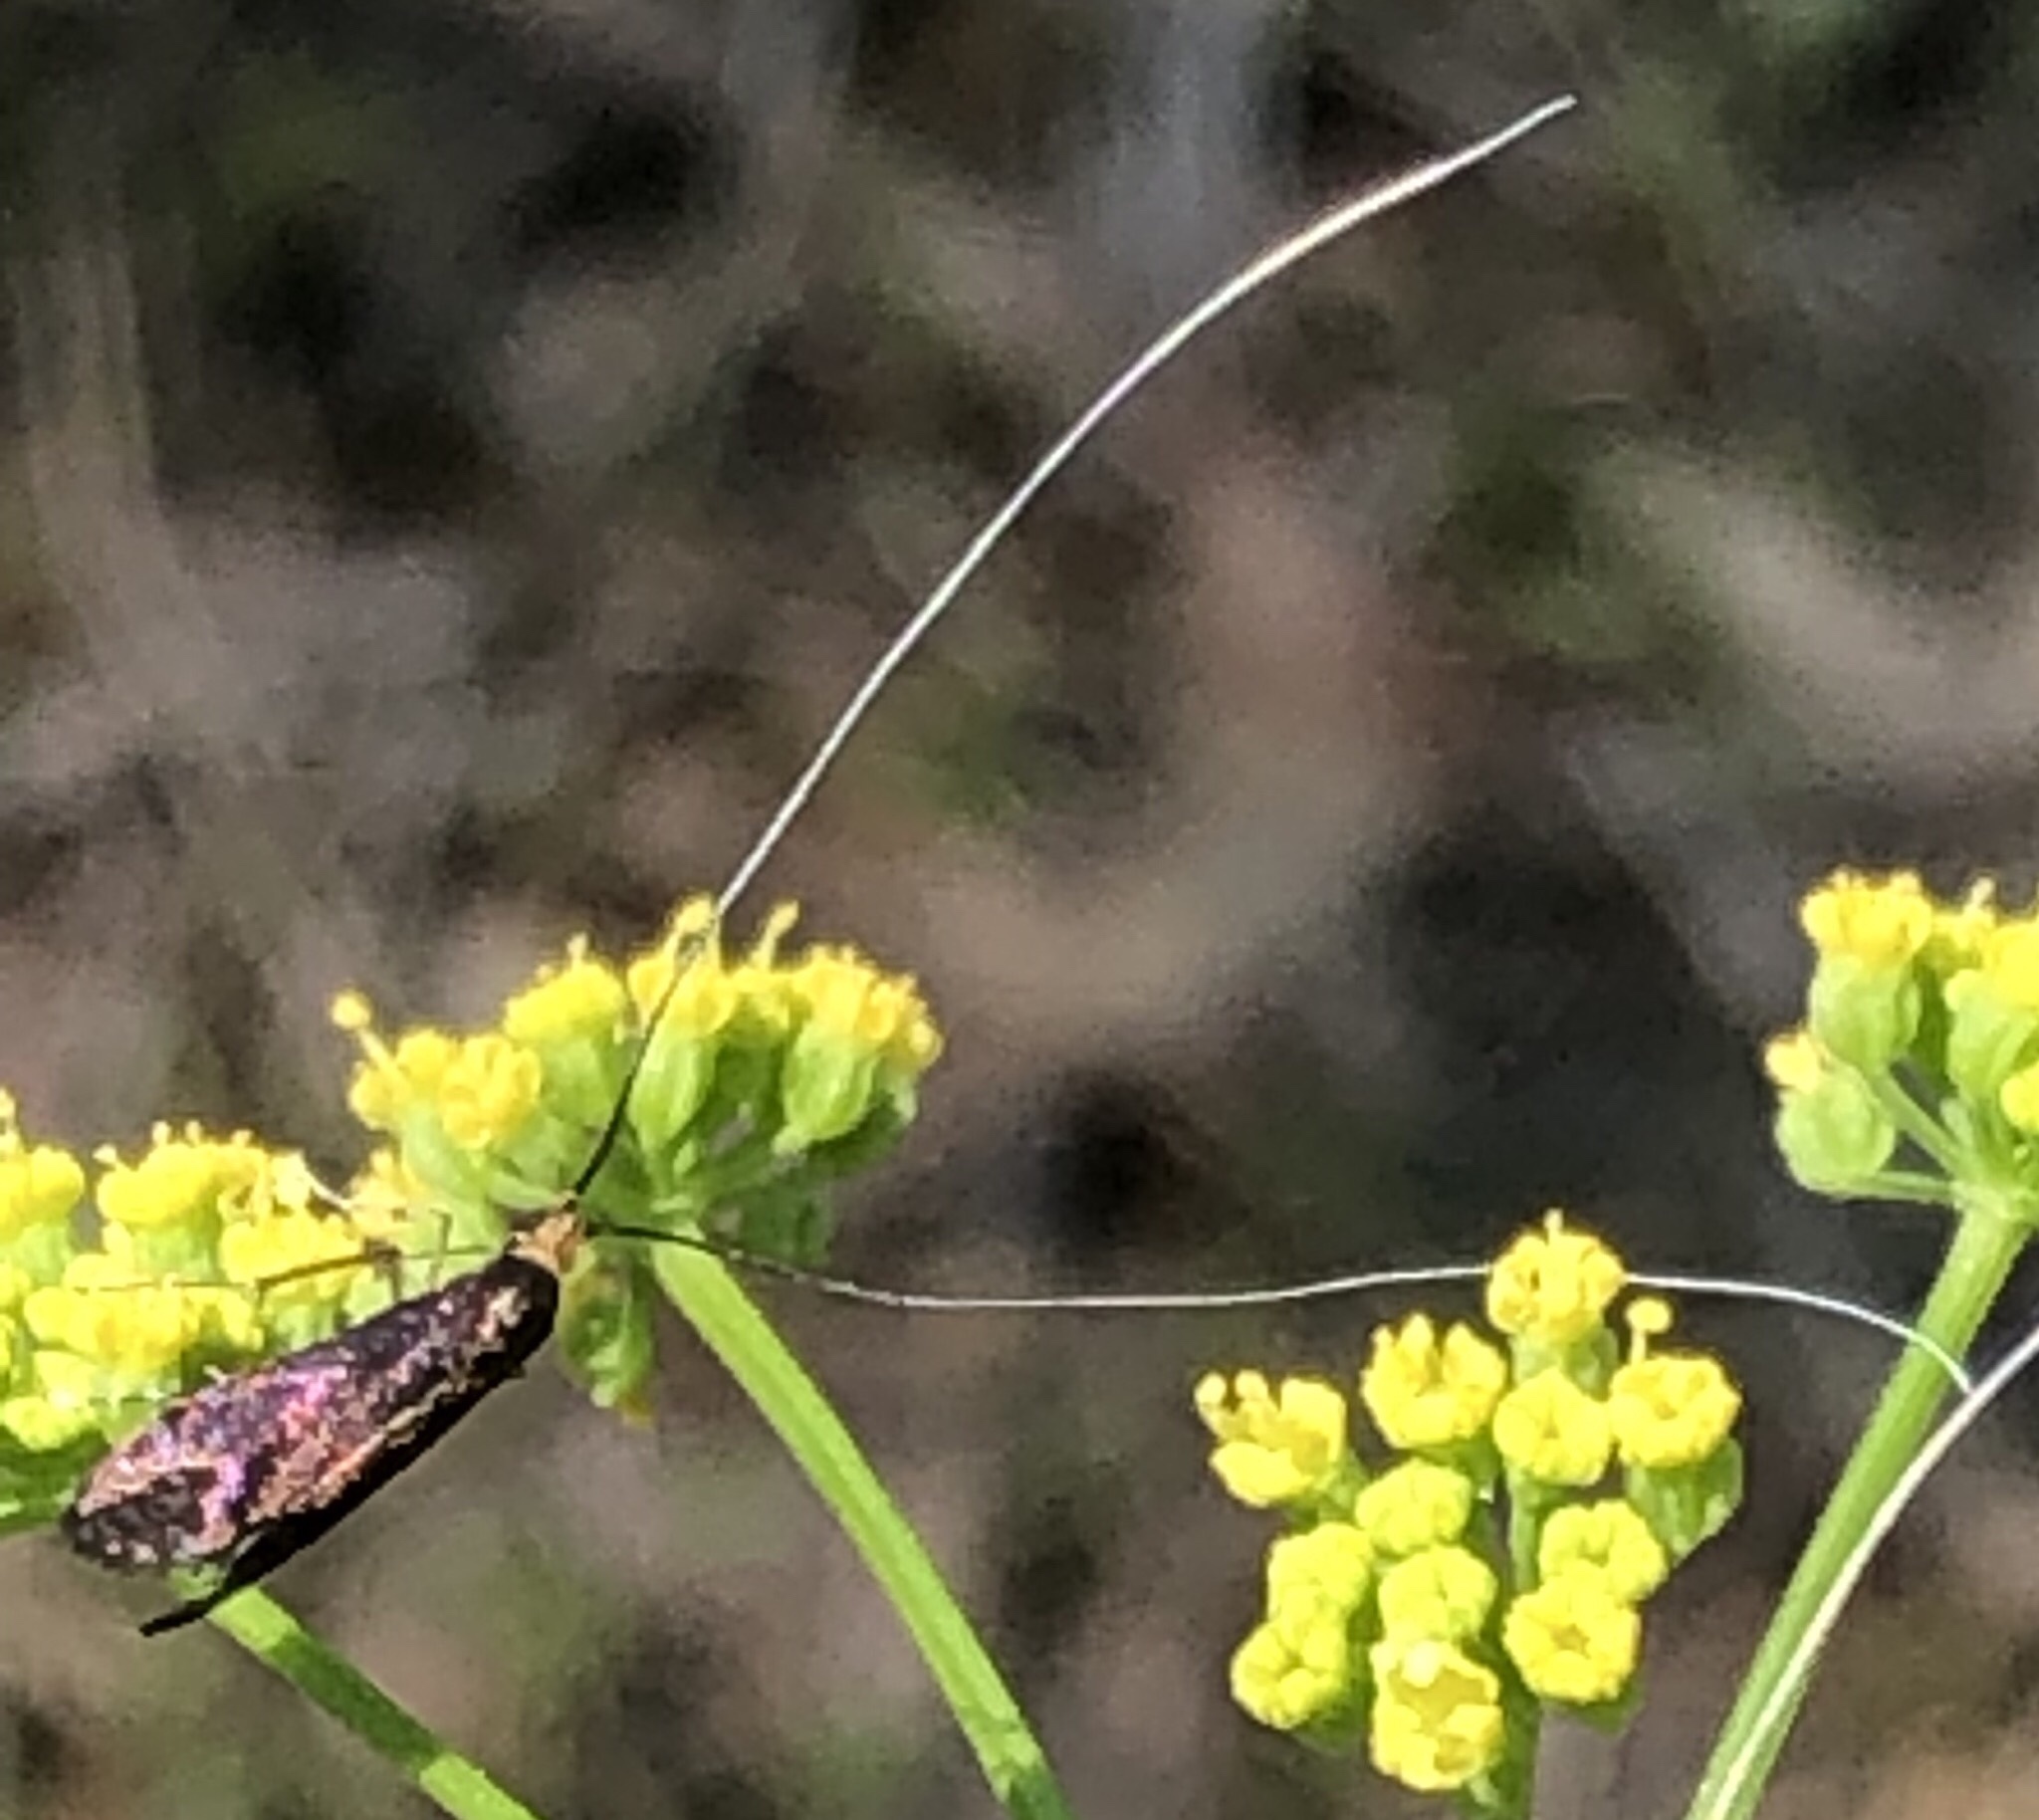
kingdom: Animalia
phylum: Arthropoda
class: Insecta
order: Lepidoptera
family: Adelidae
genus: Adela
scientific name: Adela caeruleella
